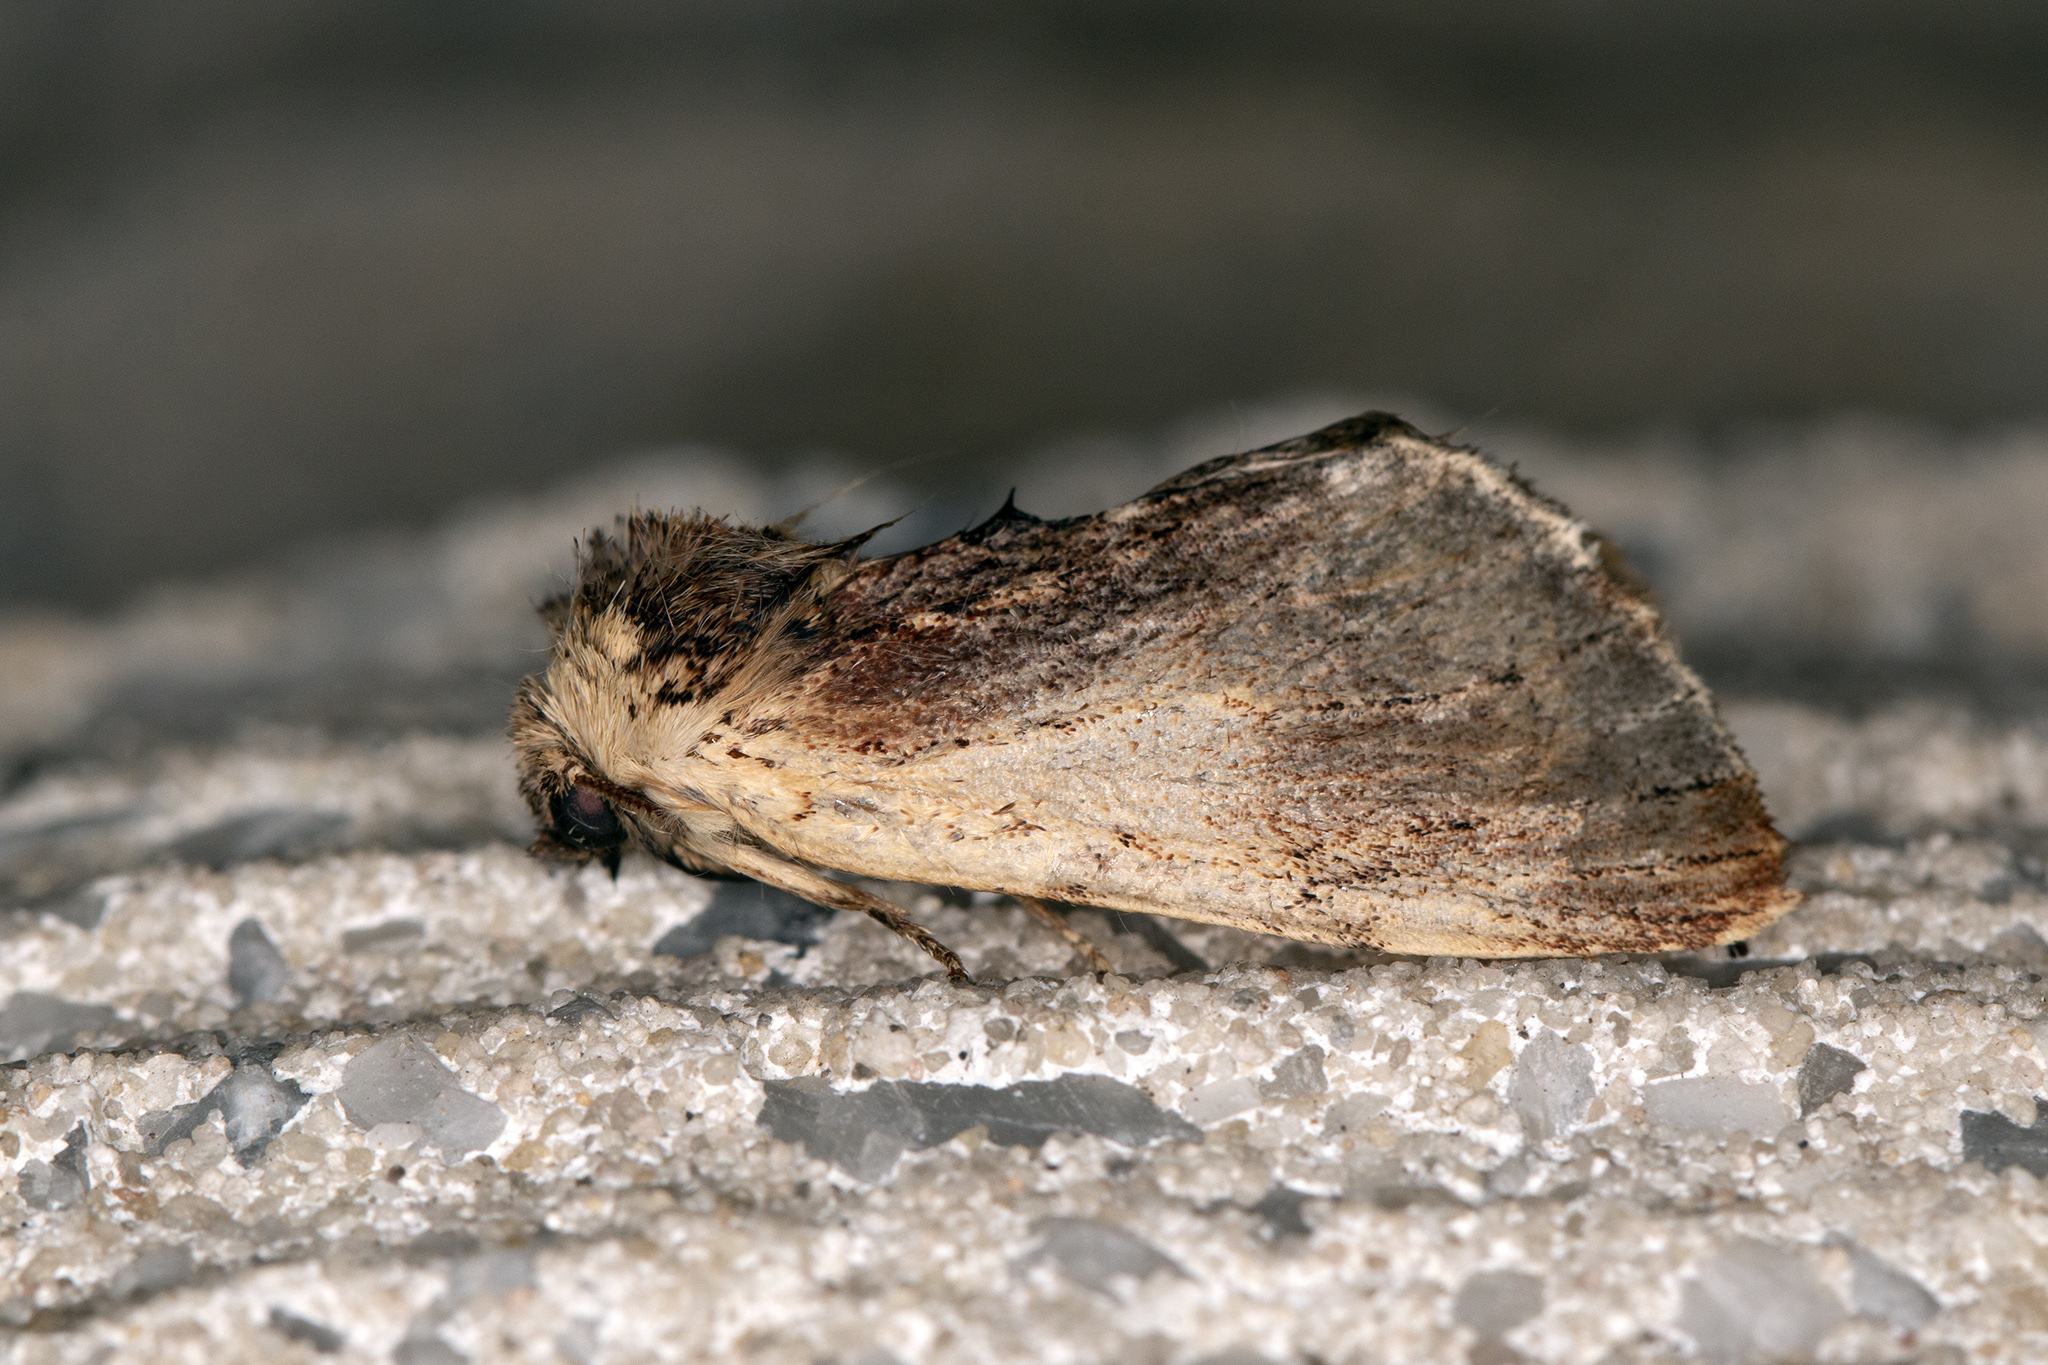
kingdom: Animalia
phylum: Arthropoda
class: Insecta
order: Lepidoptera
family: Notodontidae
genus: Ptilodon
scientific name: Ptilodon cucullina
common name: Maple prominent
